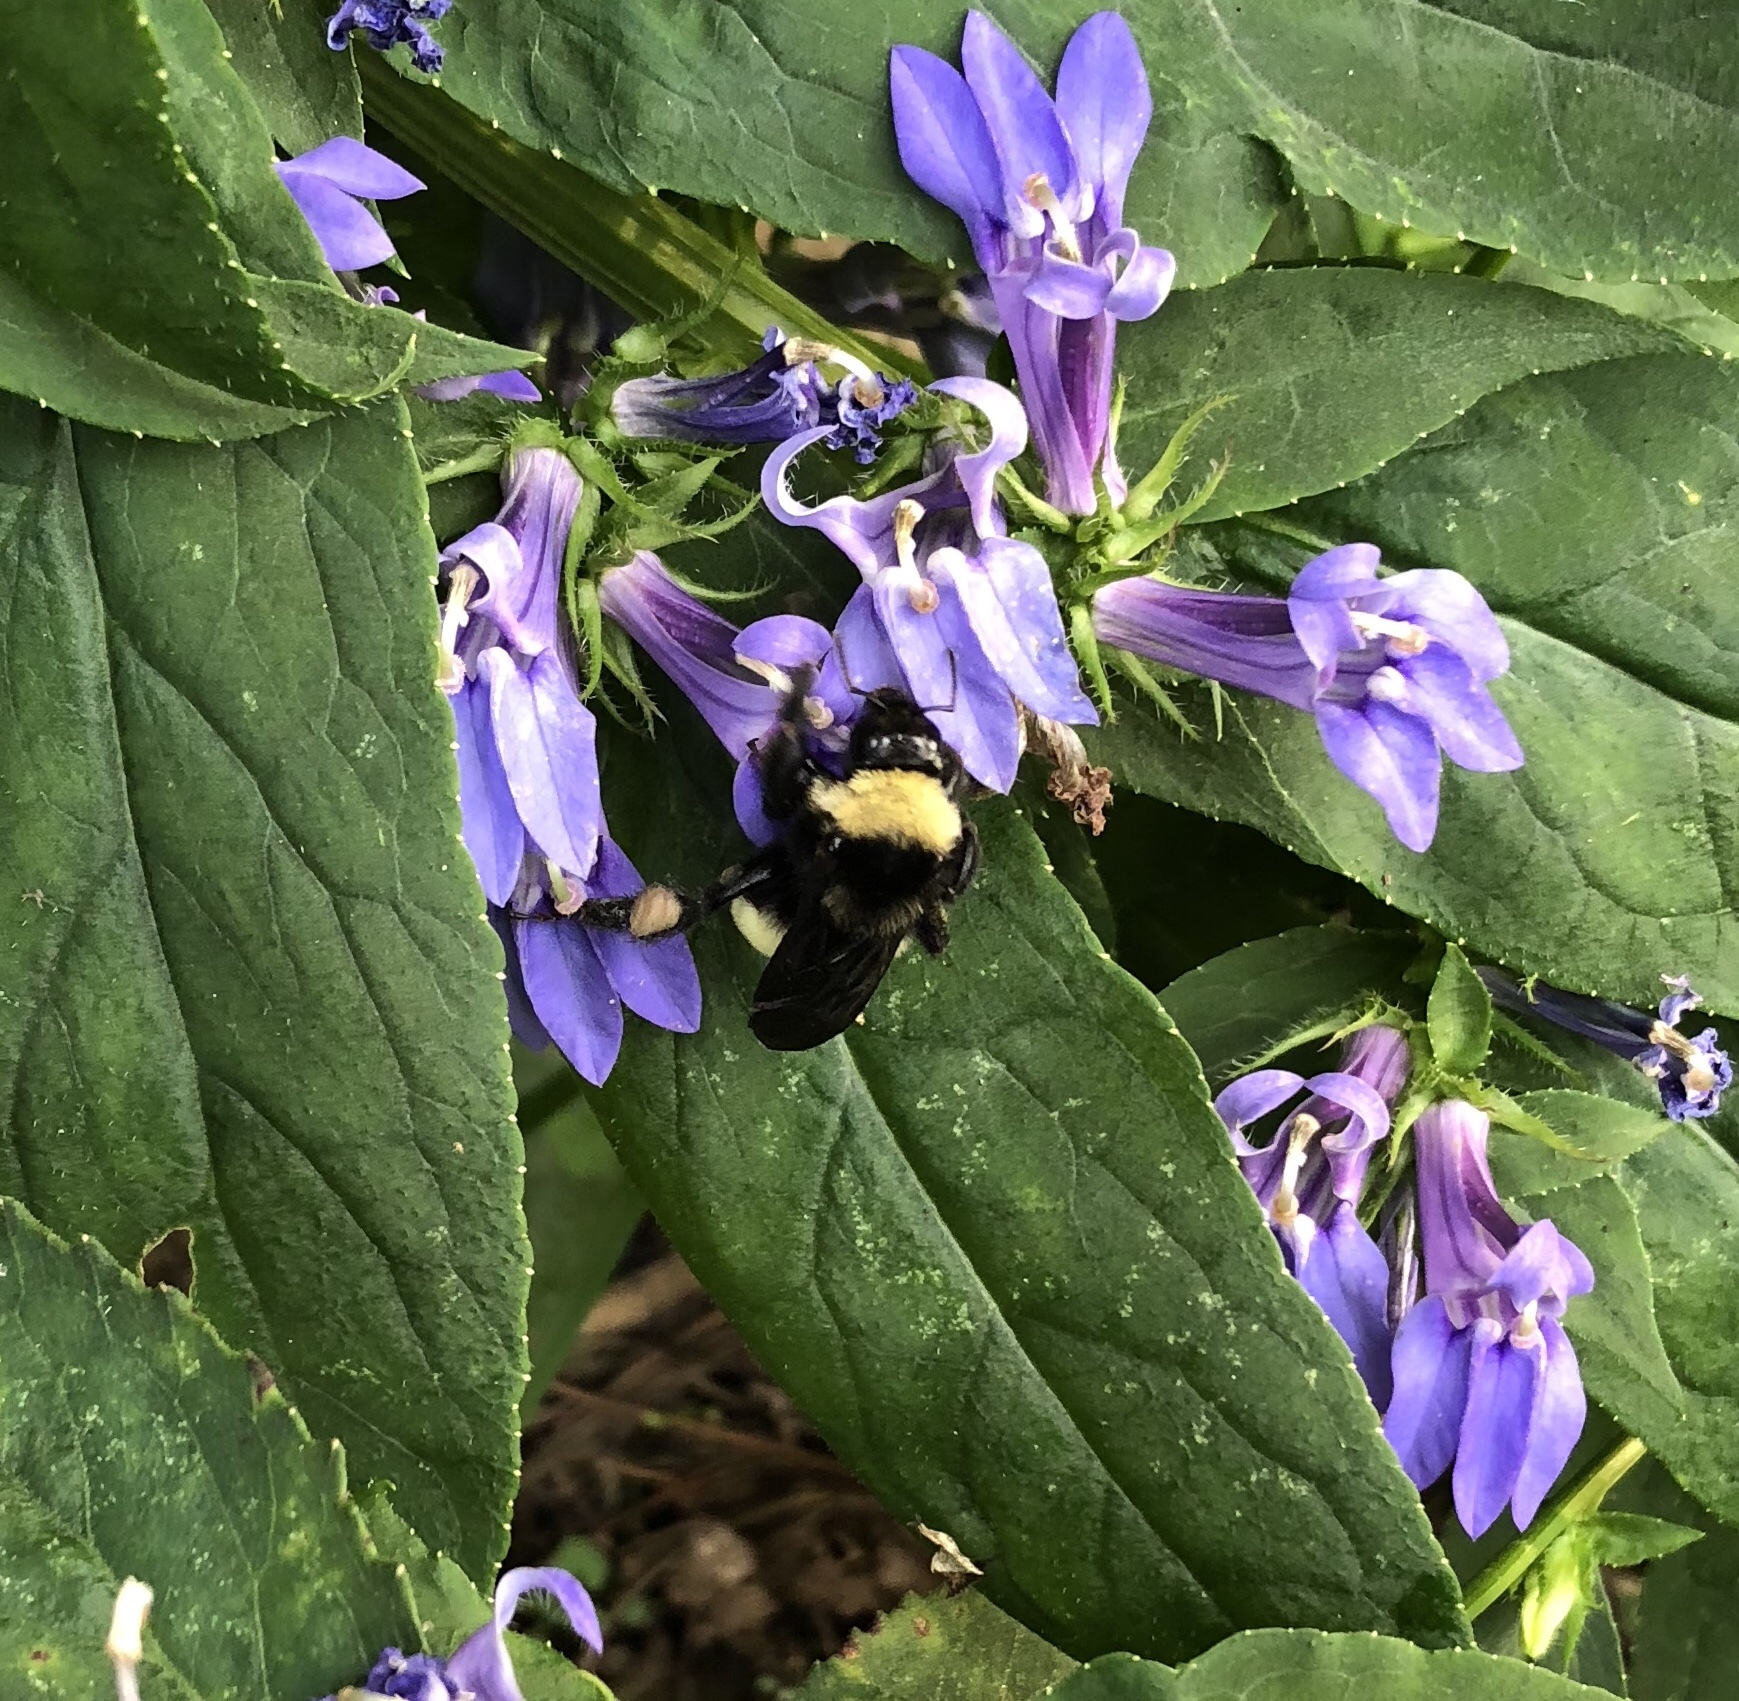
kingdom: Animalia
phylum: Arthropoda
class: Insecta
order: Hymenoptera
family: Apidae
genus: Bombus
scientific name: Bombus pensylvanicus
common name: Bumble bee
